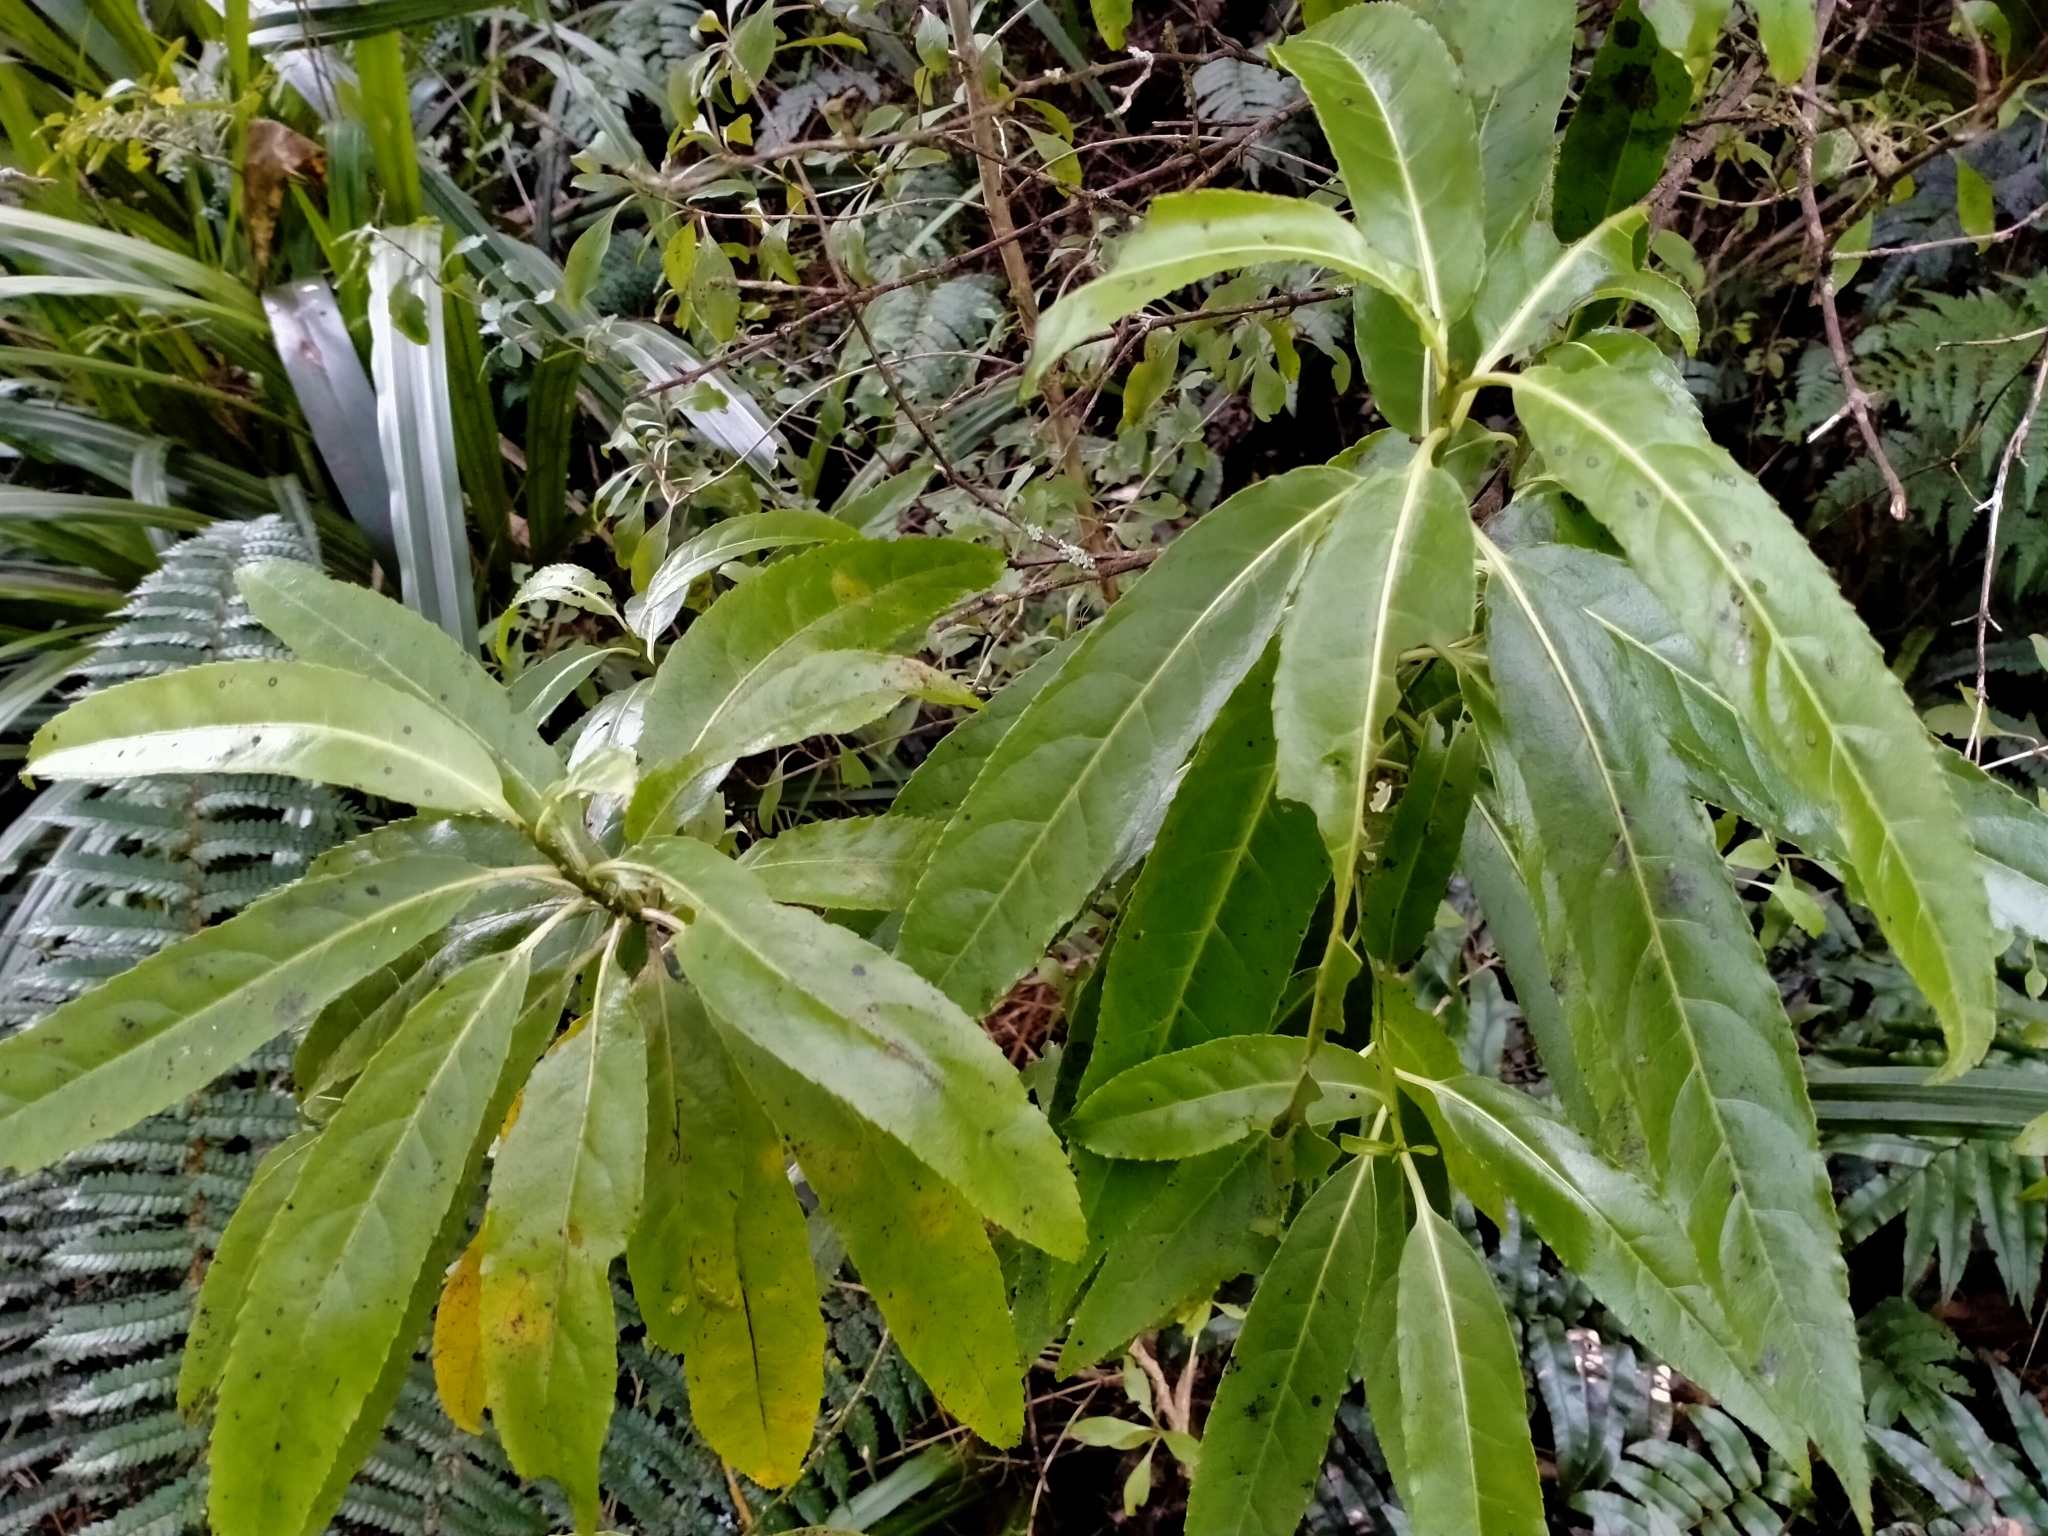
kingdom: Plantae
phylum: Tracheophyta
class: Magnoliopsida
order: Malpighiales
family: Violaceae
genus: Melicytus
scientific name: Melicytus lanceolatus
